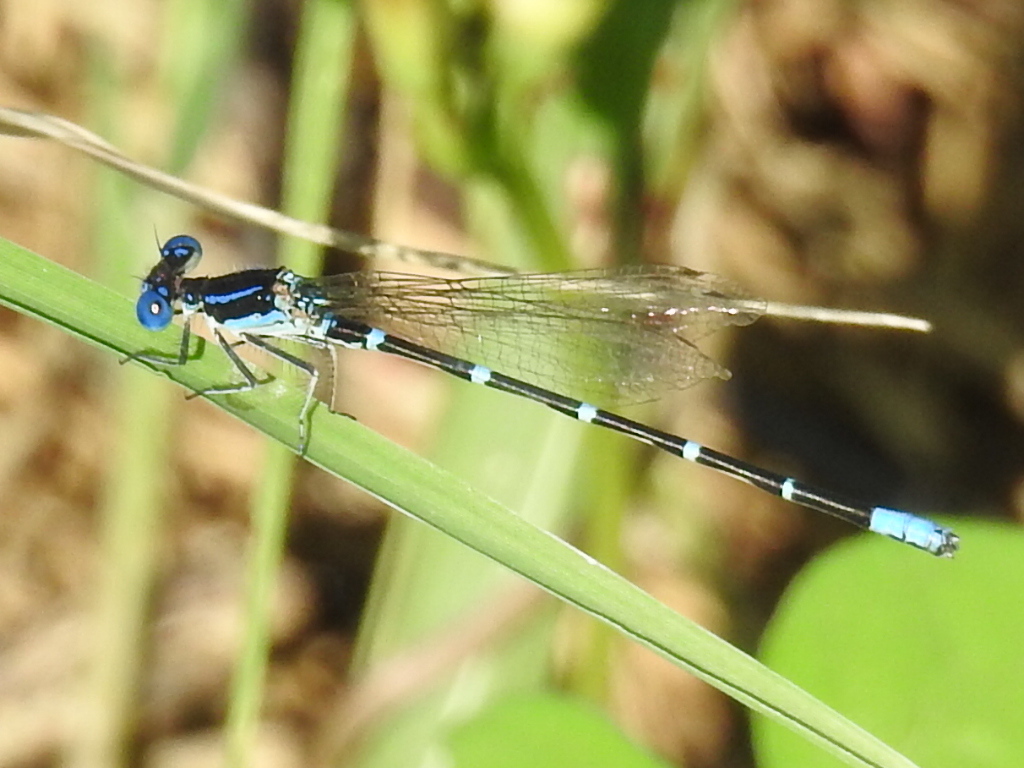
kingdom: Animalia
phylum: Arthropoda
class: Insecta
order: Odonata
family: Coenagrionidae
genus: Argia
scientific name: Argia sedula
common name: Blue-ringed dancer
